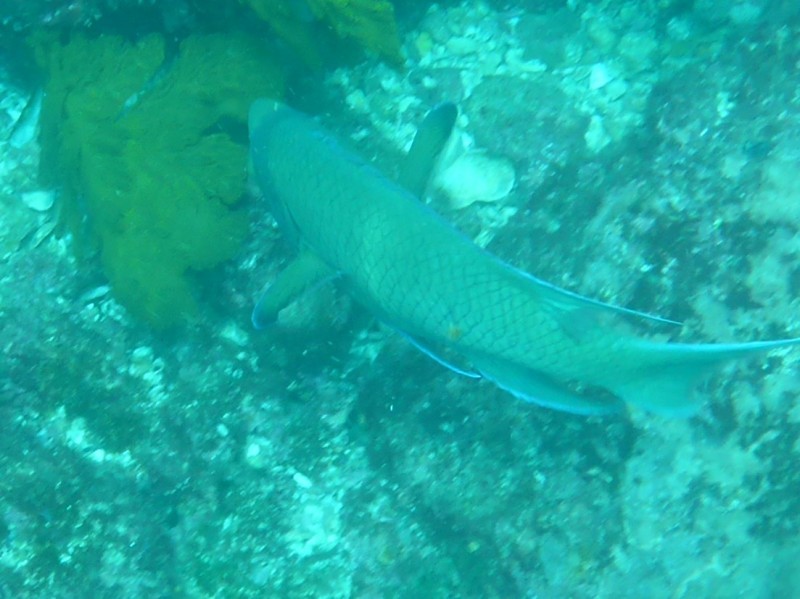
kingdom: Animalia
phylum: Chordata
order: Perciformes
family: Labridae
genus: Bodianus
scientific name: Bodianus diplotaenia
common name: Mexican hogfish
